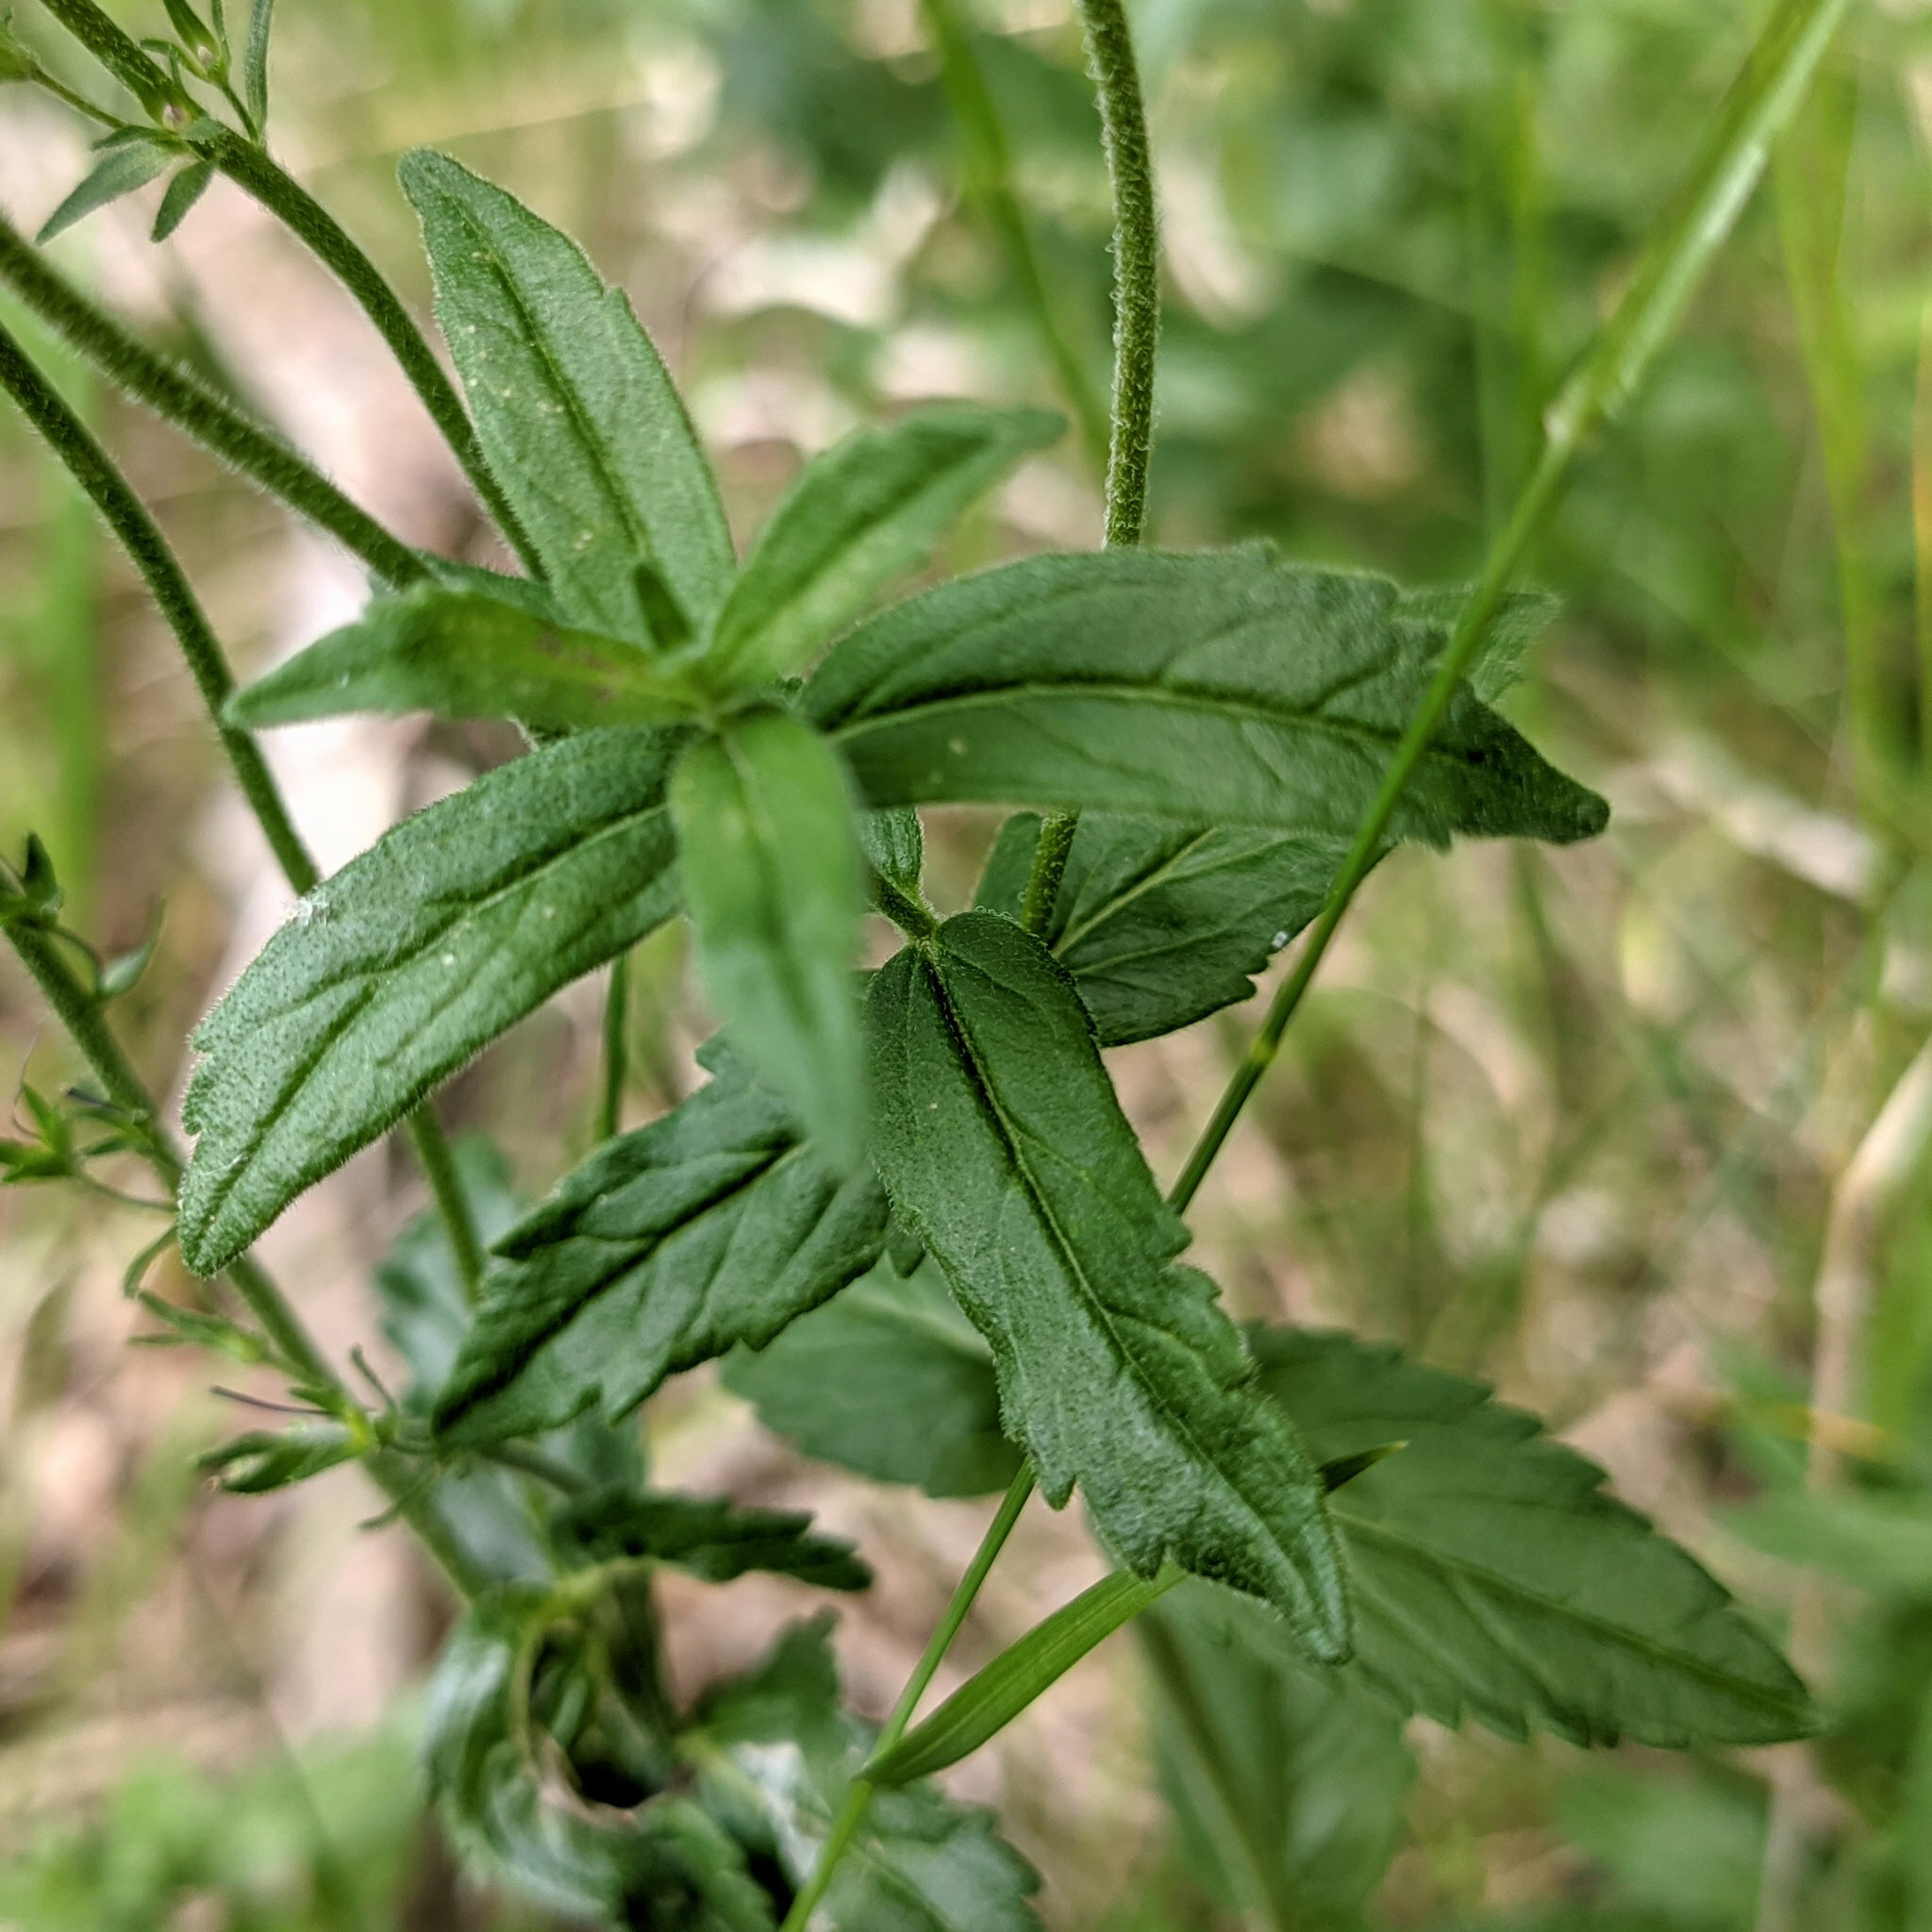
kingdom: Plantae
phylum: Tracheophyta
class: Magnoliopsida
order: Lamiales
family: Plantaginaceae
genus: Veronica
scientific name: Veronica teucrium
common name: Large speedwell
